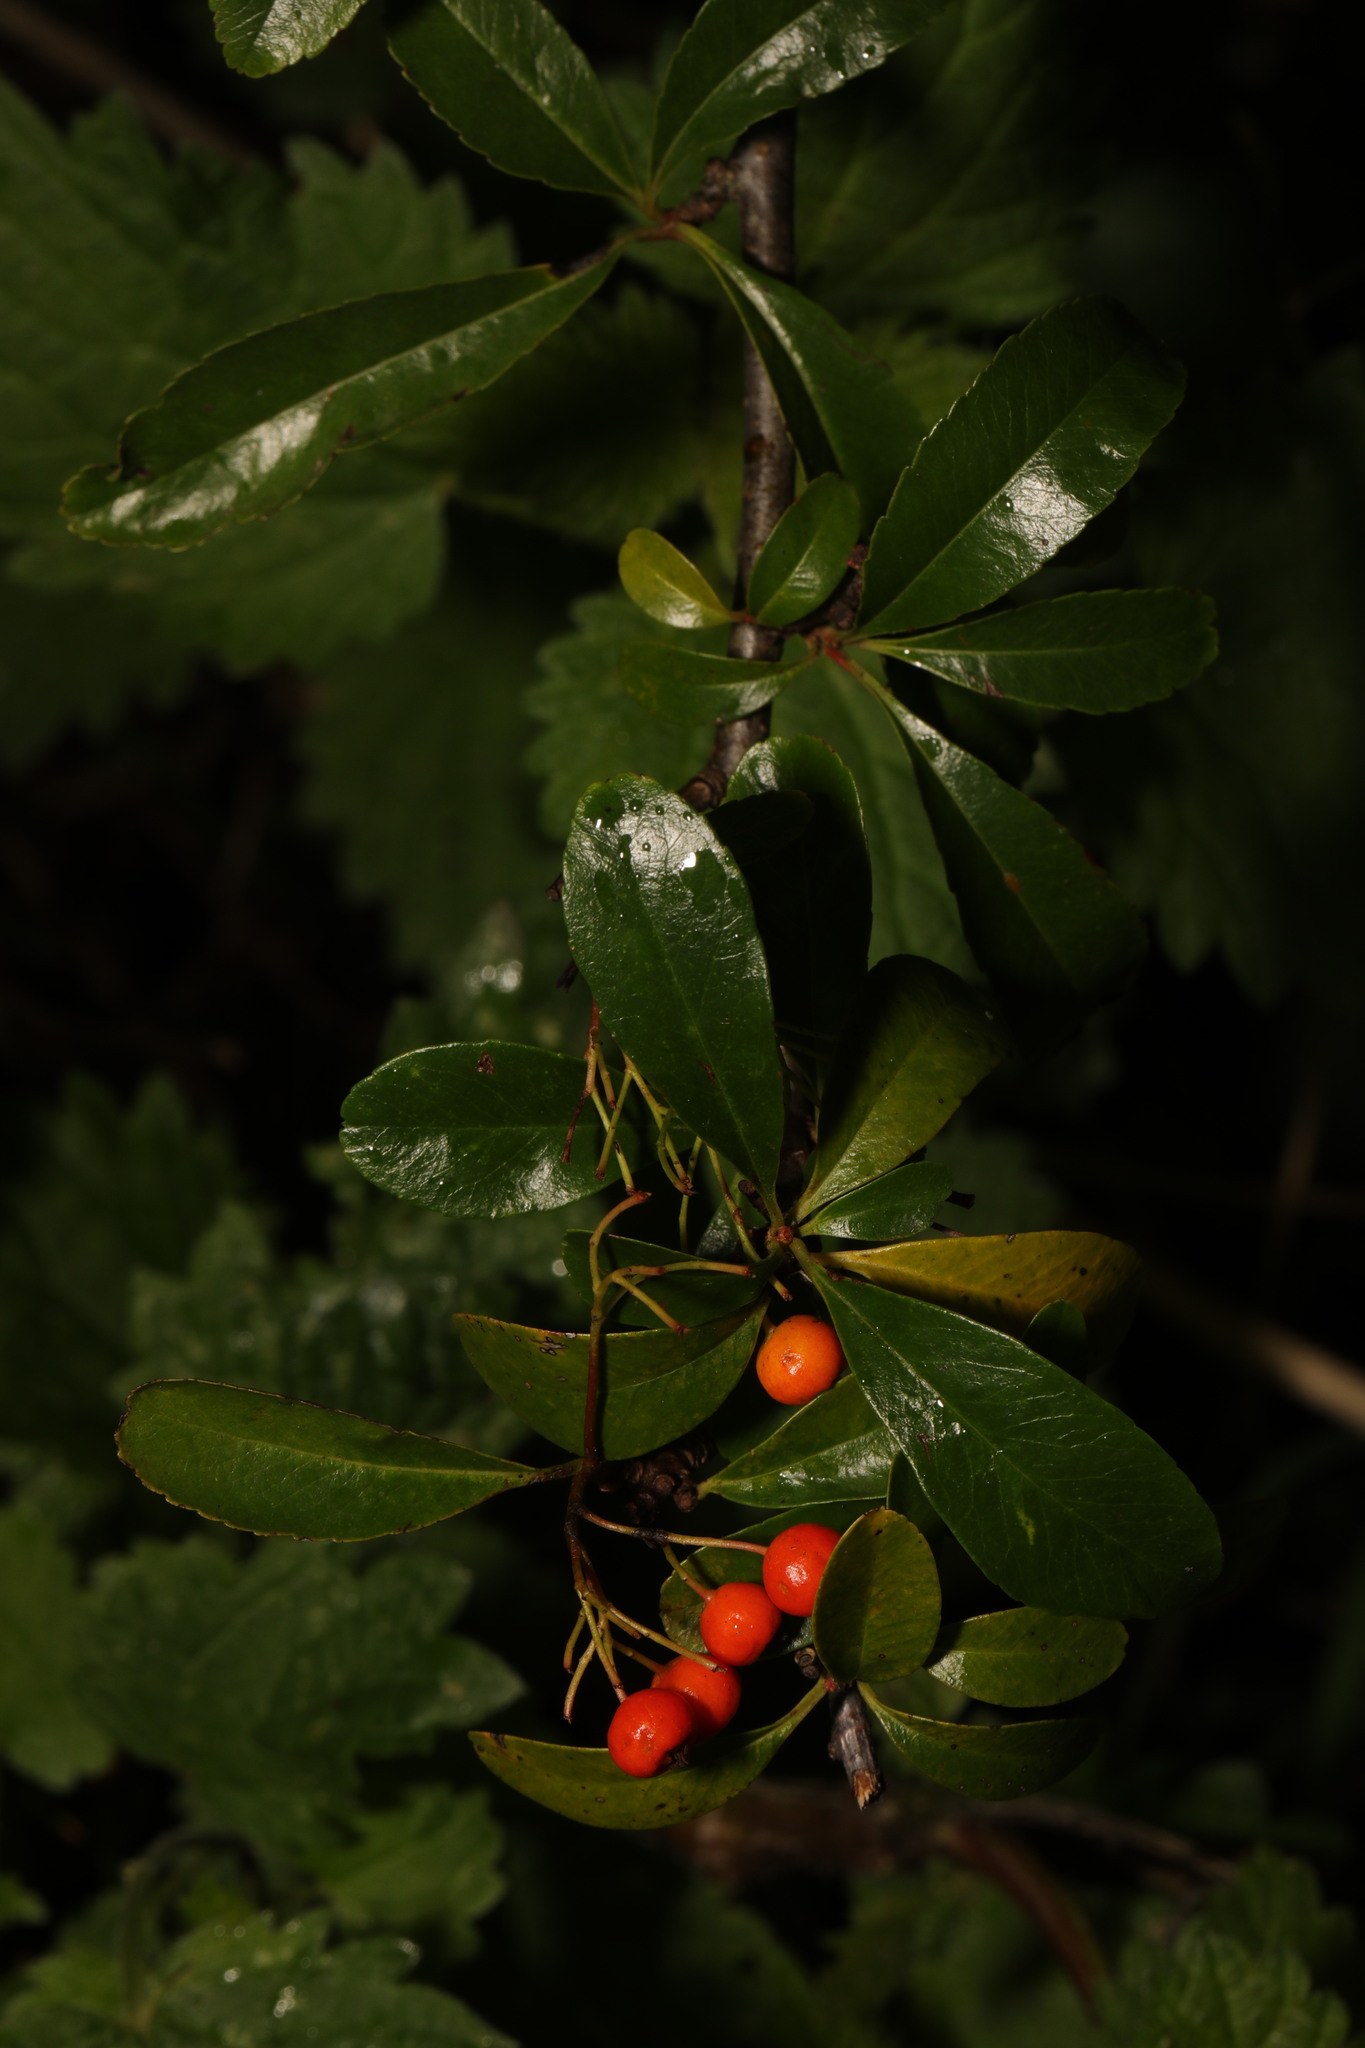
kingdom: Plantae
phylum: Tracheophyta
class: Magnoliopsida
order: Rosales
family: Rosaceae
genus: Pyracantha
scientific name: Pyracantha coccinea
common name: Firethorn
